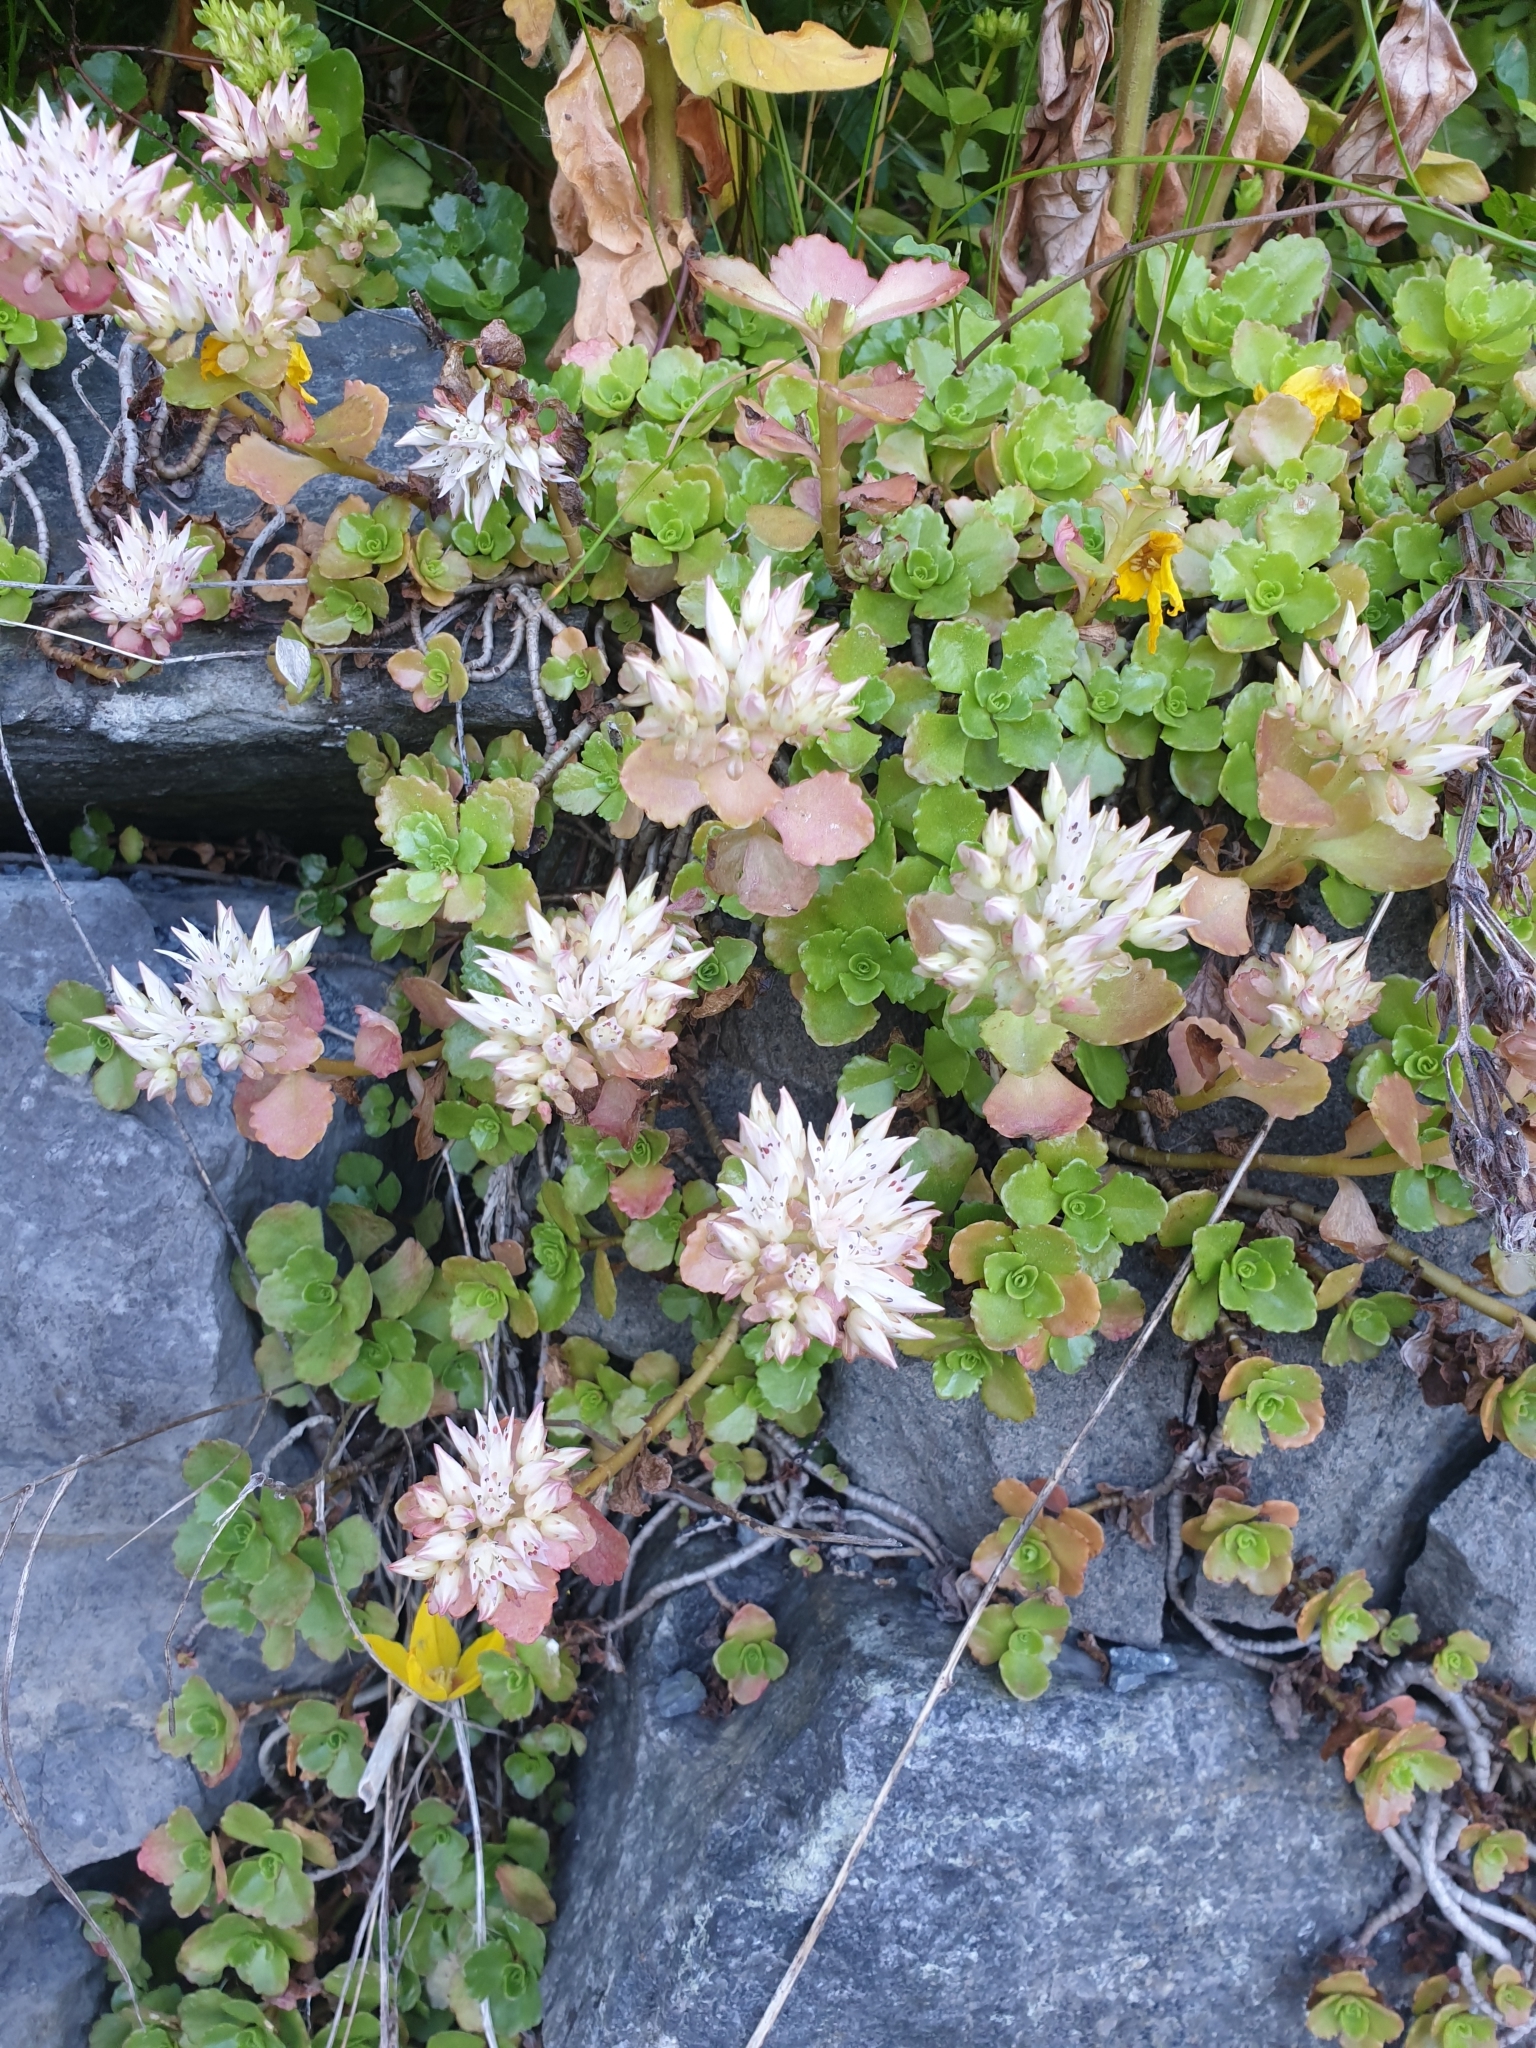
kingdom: Plantae
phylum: Tracheophyta
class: Magnoliopsida
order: Saxifragales
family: Crassulaceae
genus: Phedimus
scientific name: Phedimus spurius
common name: Caucasian stonecrop
